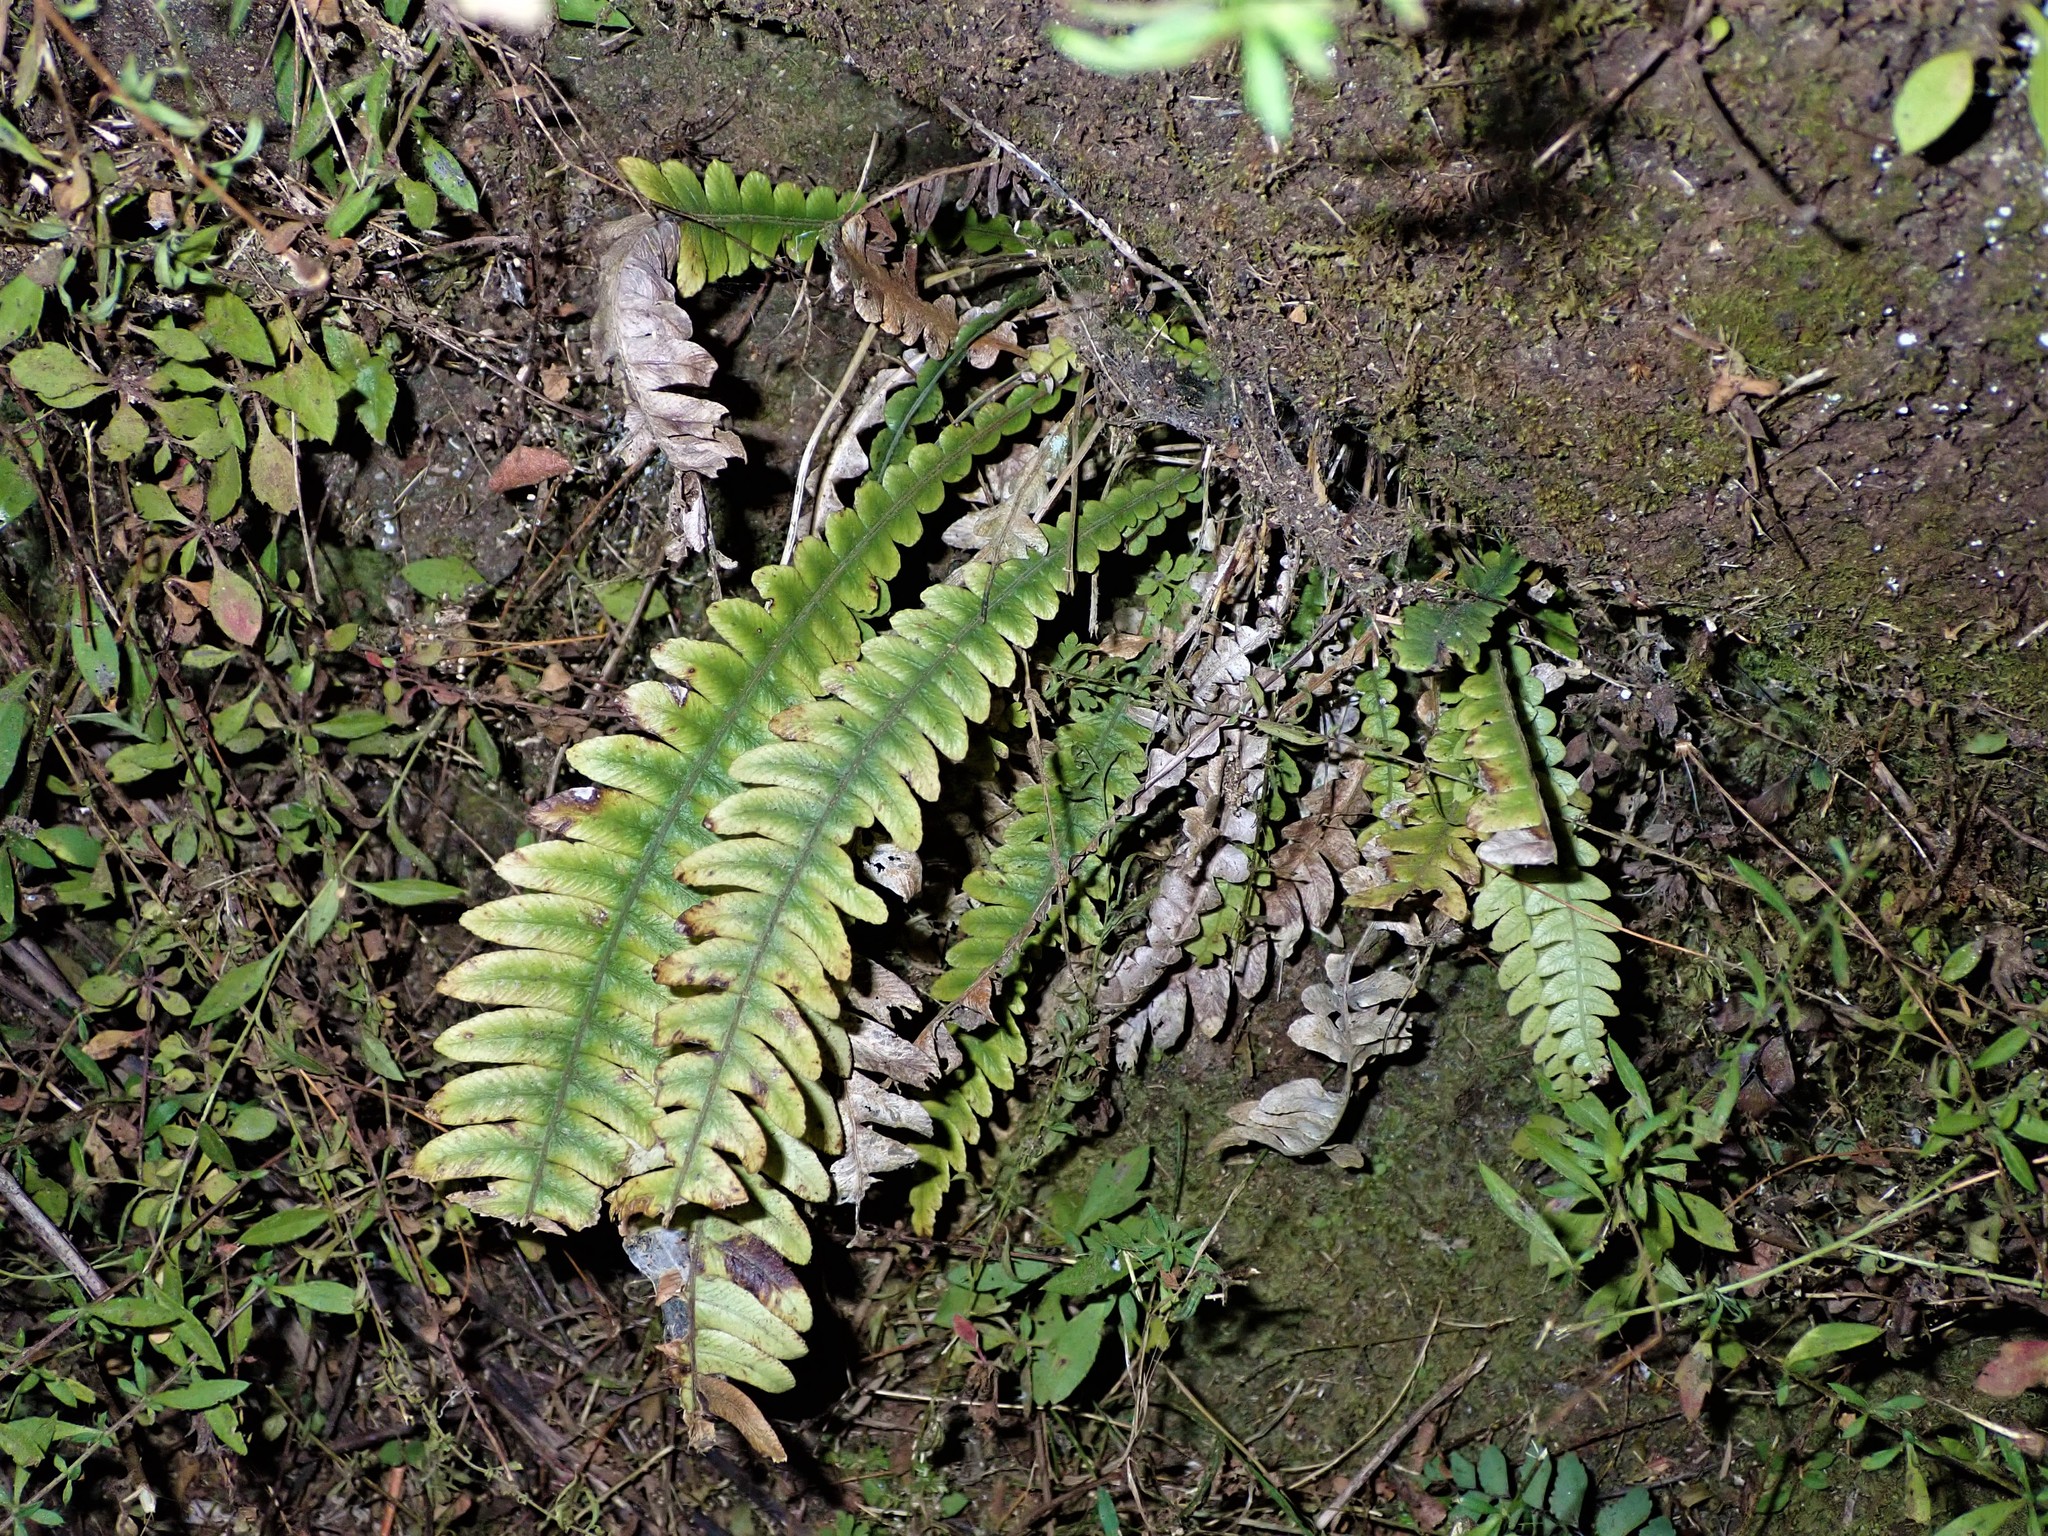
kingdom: Plantae
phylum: Tracheophyta
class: Polypodiopsida
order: Polypodiales
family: Blechnaceae
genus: Austroblechnum
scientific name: Austroblechnum lanceolatum
